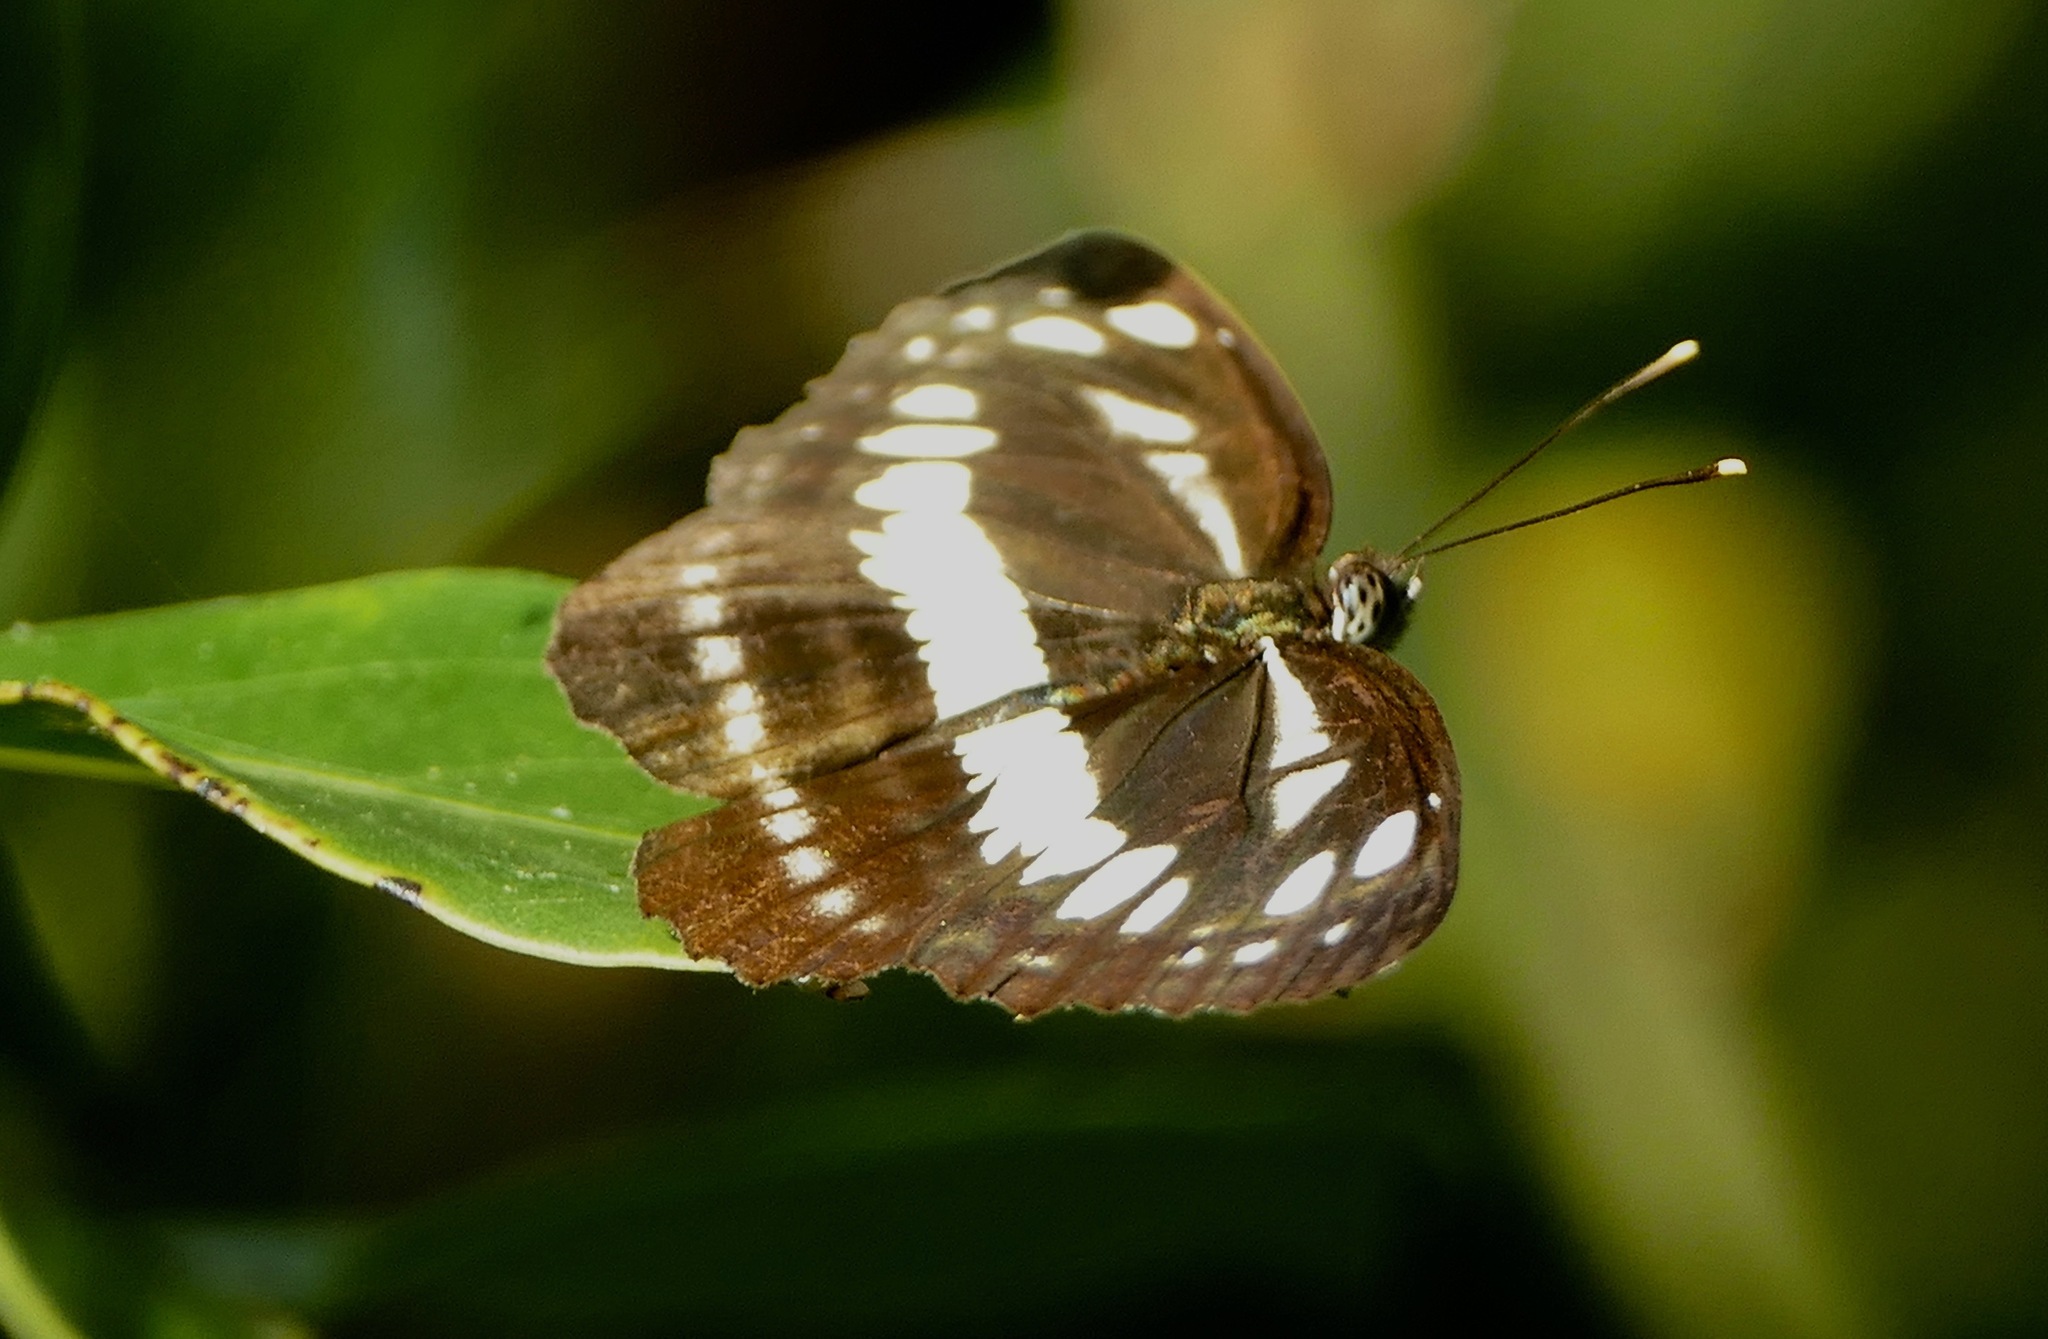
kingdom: Animalia
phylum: Arthropoda
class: Insecta
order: Lepidoptera
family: Nymphalidae
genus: Neptis
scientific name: Neptis hylas
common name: Common sailer
